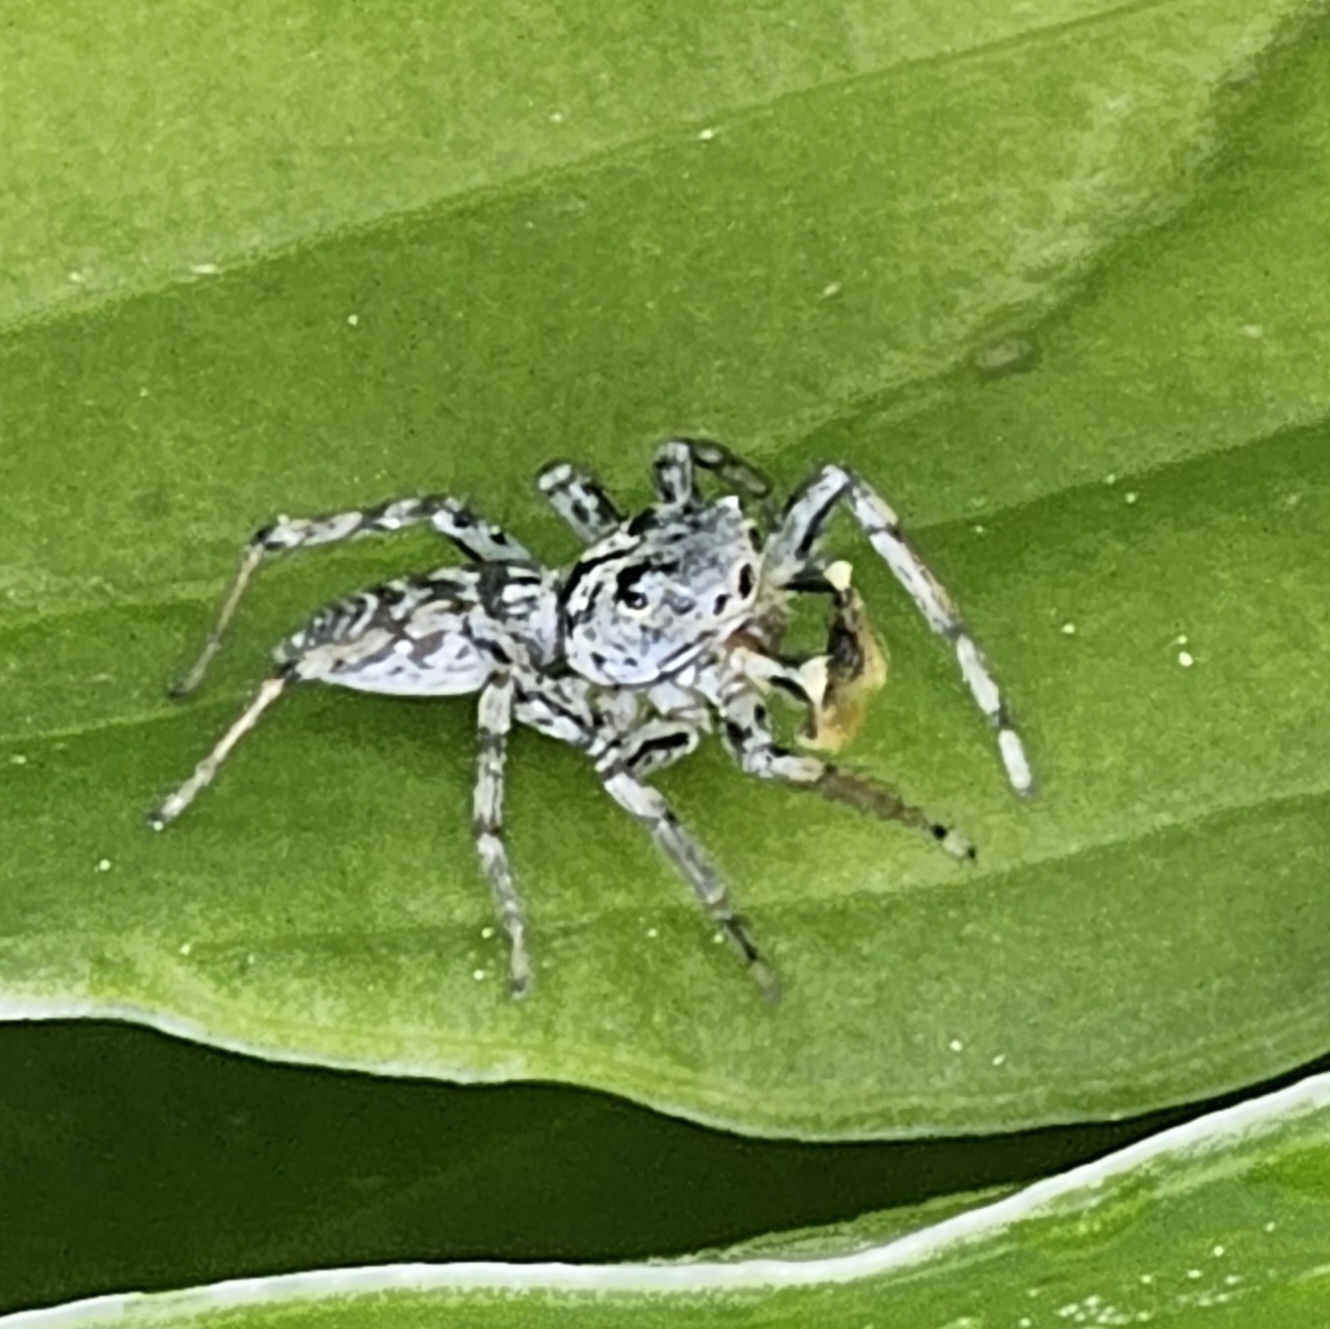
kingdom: Animalia
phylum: Arthropoda
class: Arachnida
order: Araneae
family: Salticidae
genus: Maevia
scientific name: Maevia inclemens
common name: Dimorphic jumper
